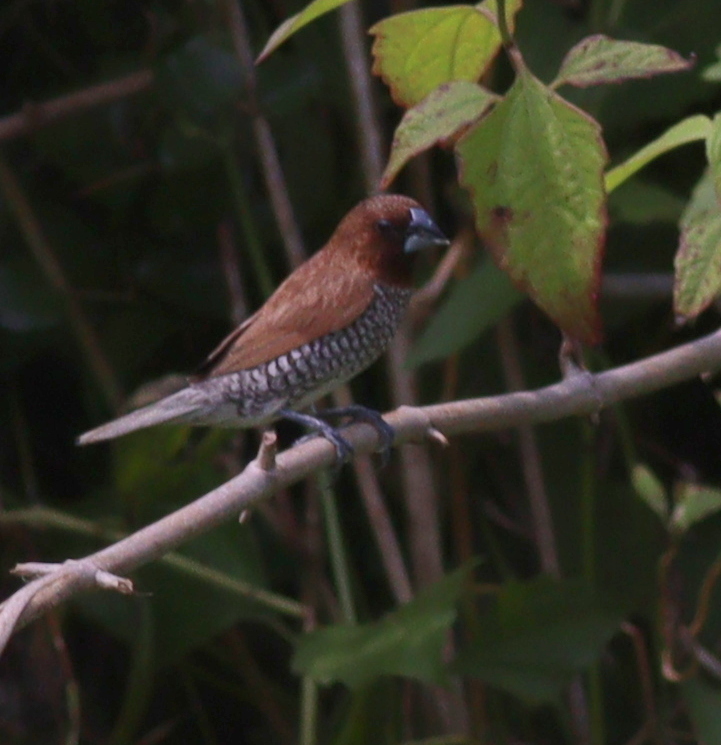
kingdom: Animalia
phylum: Chordata
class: Aves
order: Passeriformes
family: Estrildidae
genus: Lonchura
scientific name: Lonchura punctulata
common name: Scaly-breasted munia
